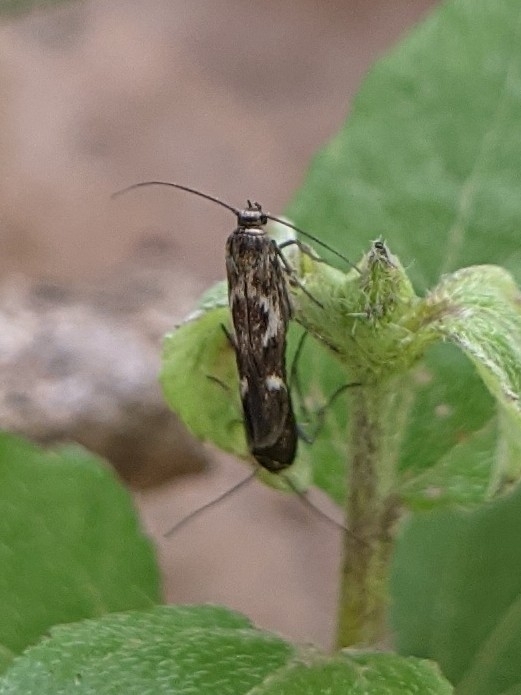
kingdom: Animalia
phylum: Arthropoda
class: Insecta
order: Lepidoptera
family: Scythrididae
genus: Scythris
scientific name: Scythris trivinctella
